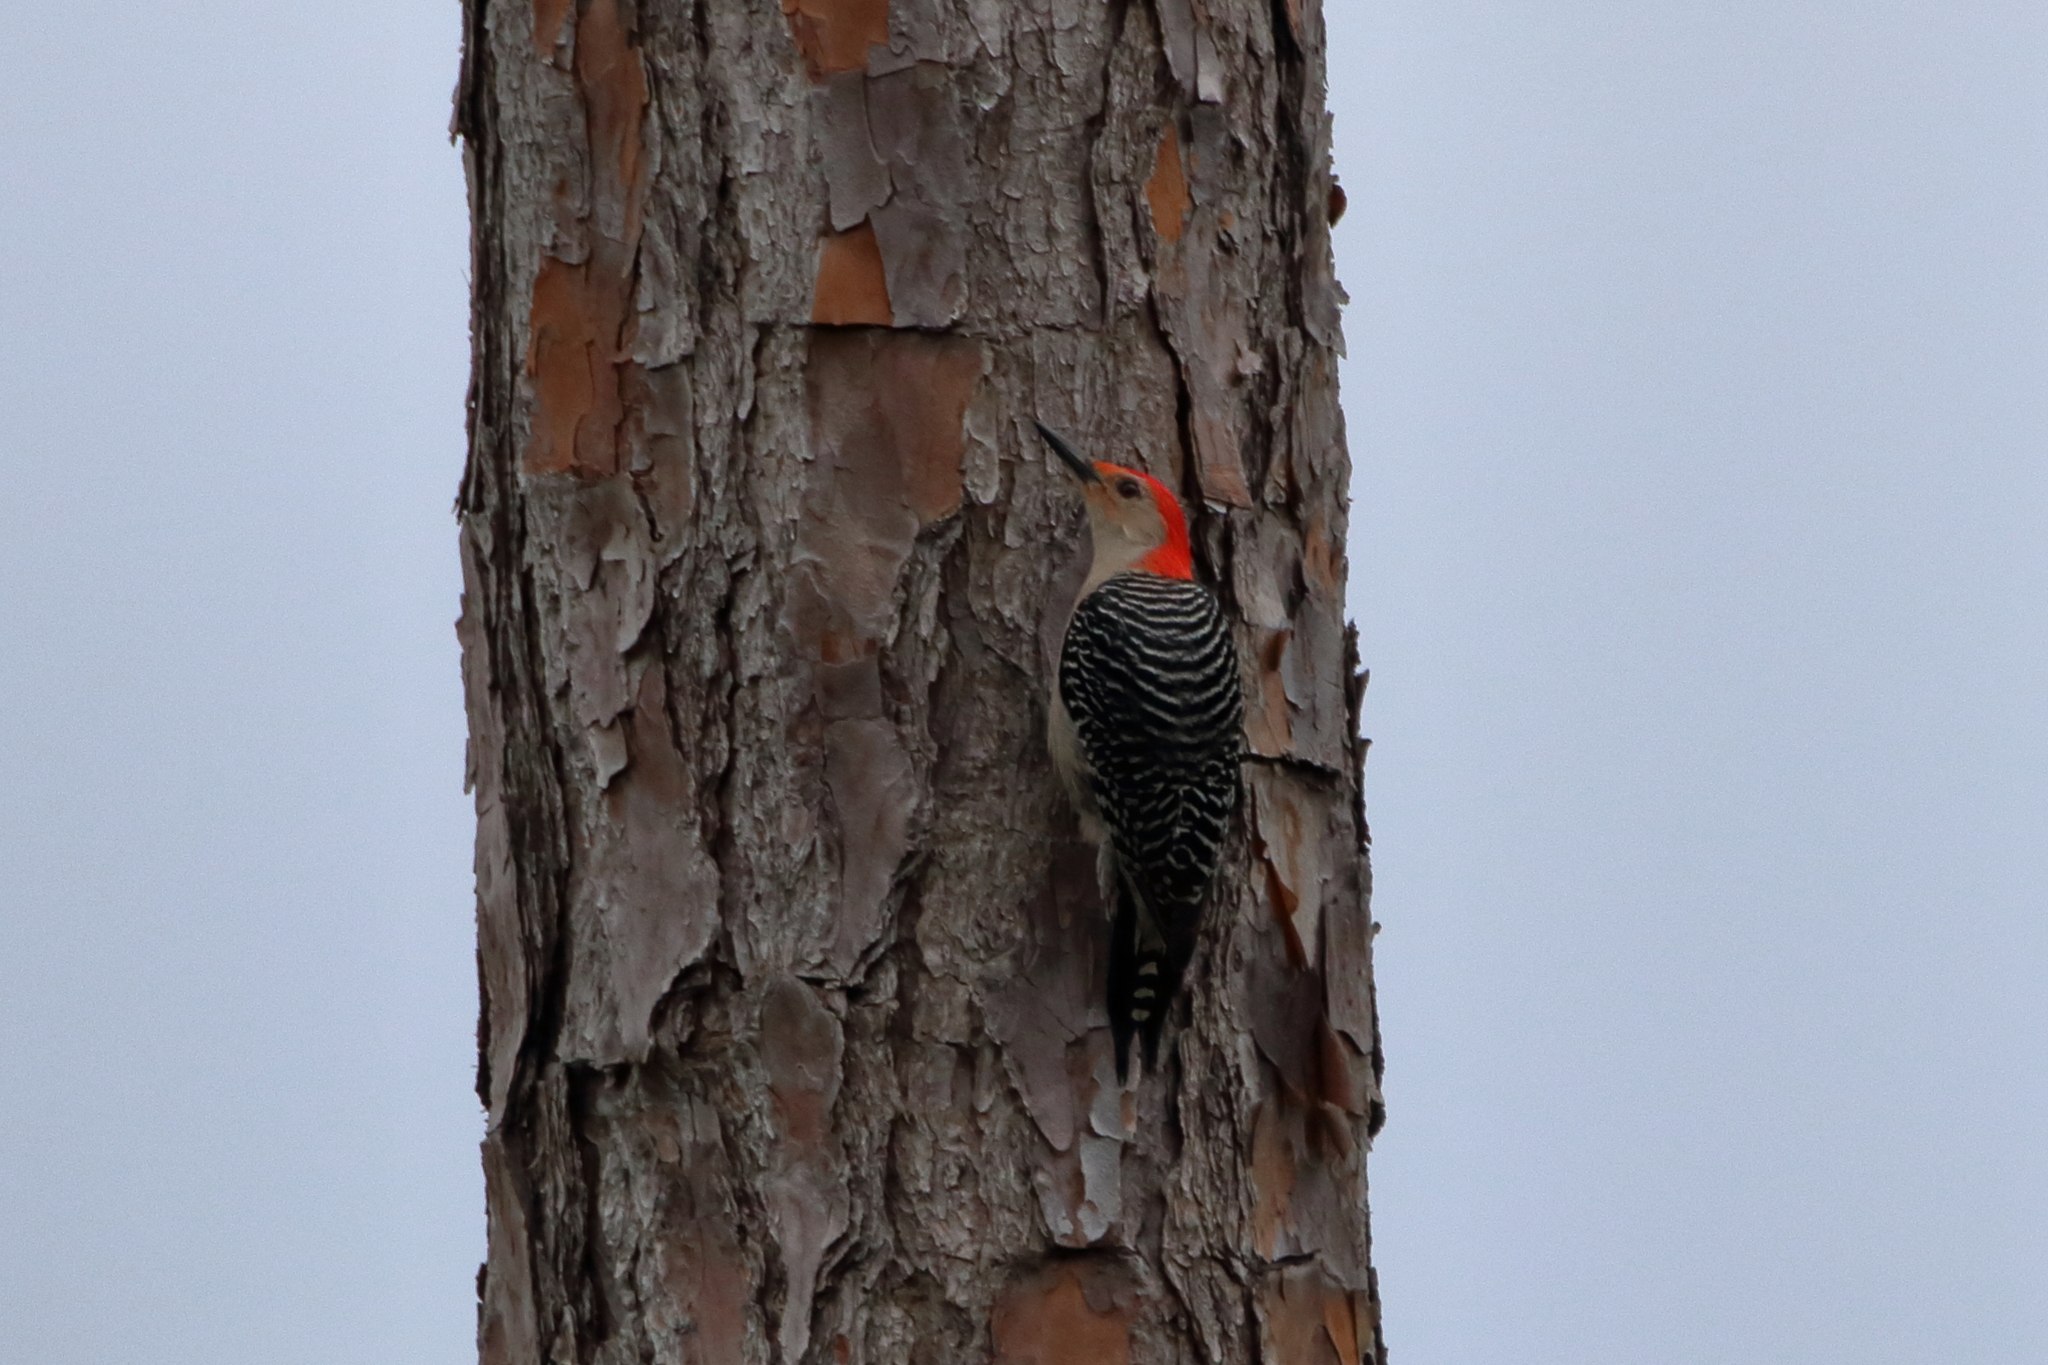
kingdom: Animalia
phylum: Chordata
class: Aves
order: Piciformes
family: Picidae
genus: Melanerpes
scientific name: Melanerpes carolinus
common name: Red-bellied woodpecker
